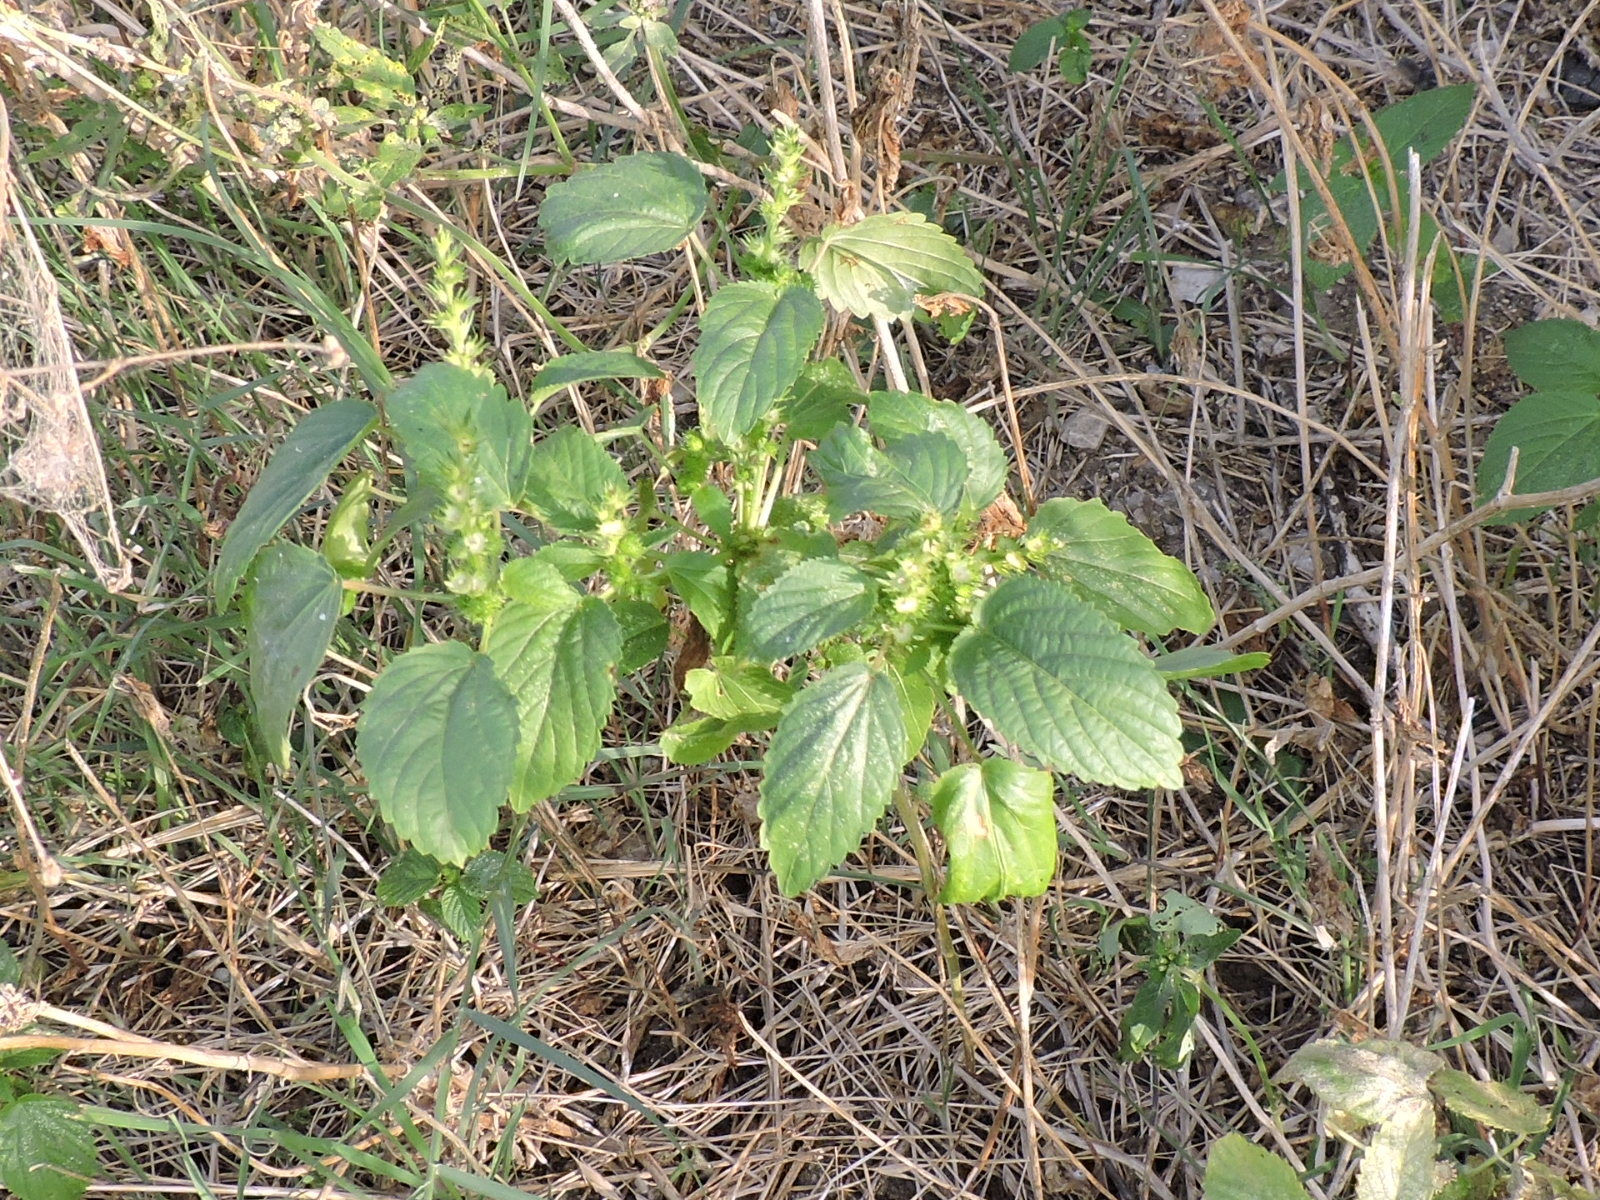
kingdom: Plantae
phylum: Tracheophyta
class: Magnoliopsida
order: Malpighiales
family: Euphorbiaceae
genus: Acalypha
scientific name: Acalypha ostryifolia
